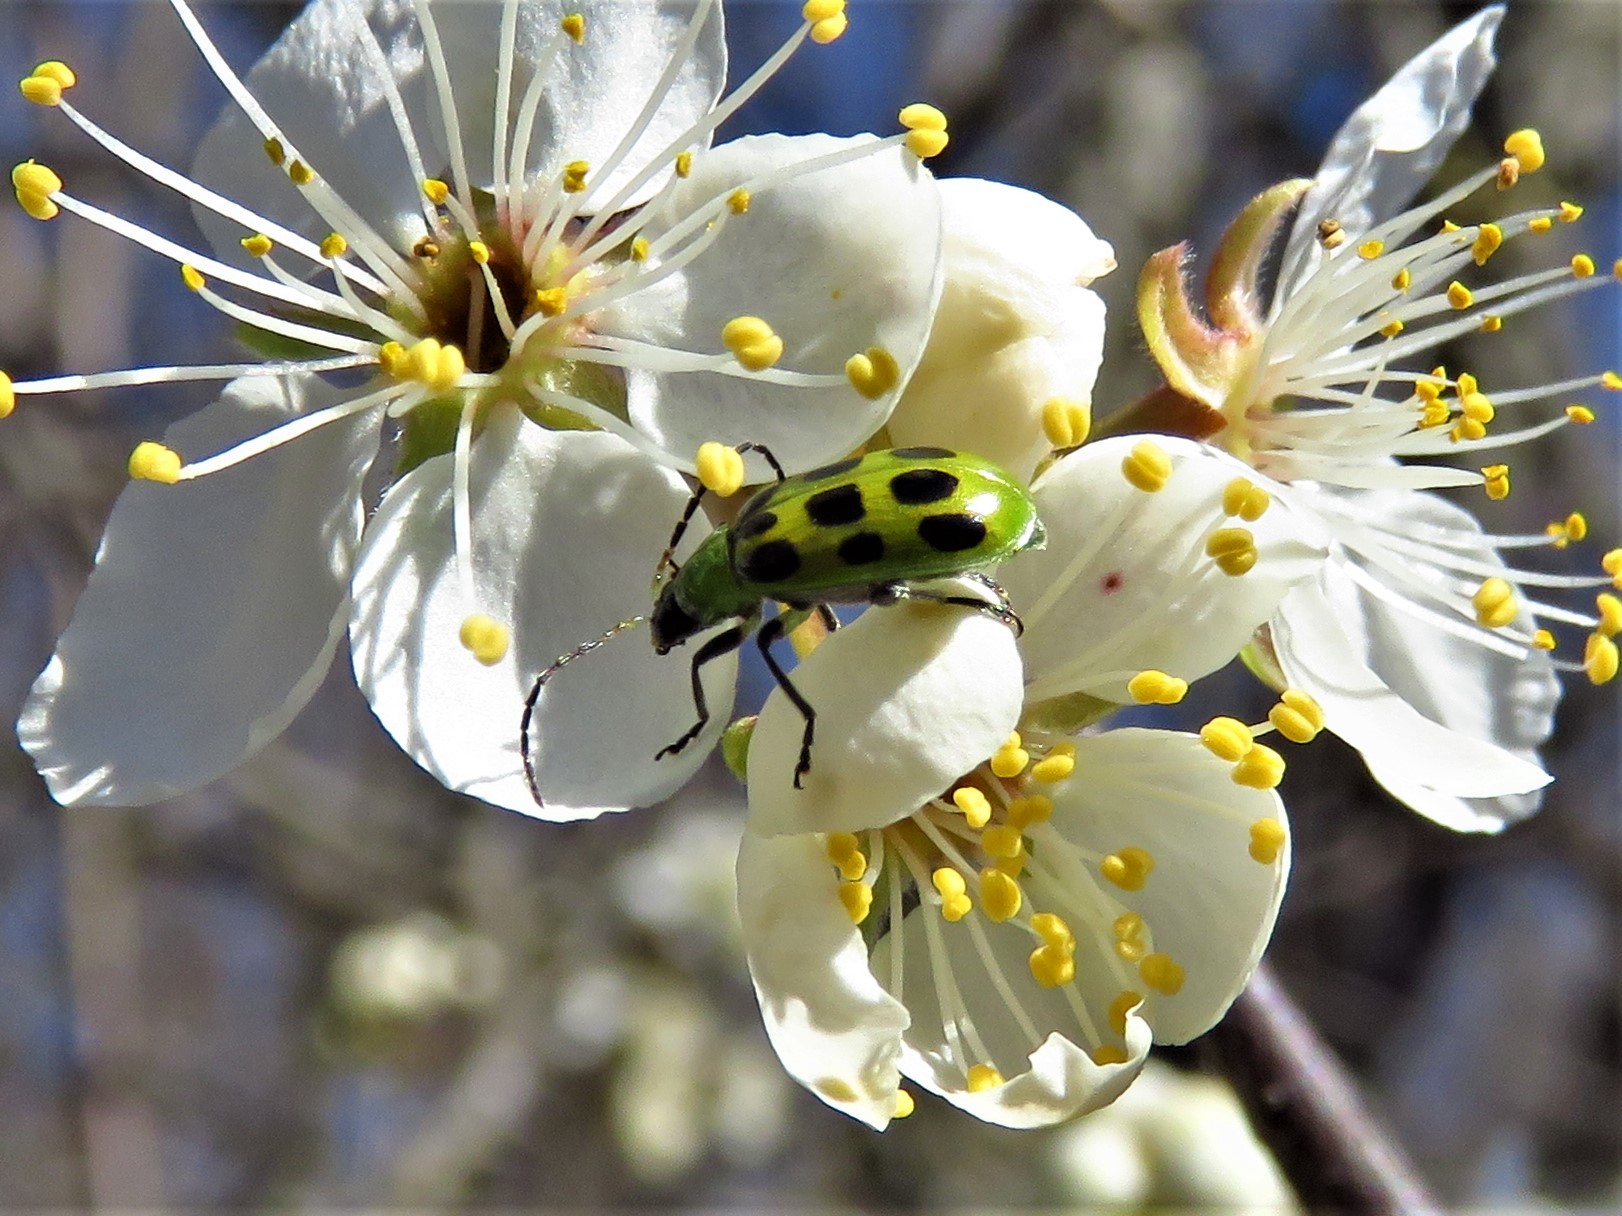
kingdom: Animalia
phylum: Arthropoda
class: Insecta
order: Coleoptera
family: Chrysomelidae
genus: Diabrotica
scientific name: Diabrotica undecimpunctata
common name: Spotted cucumber beetle
